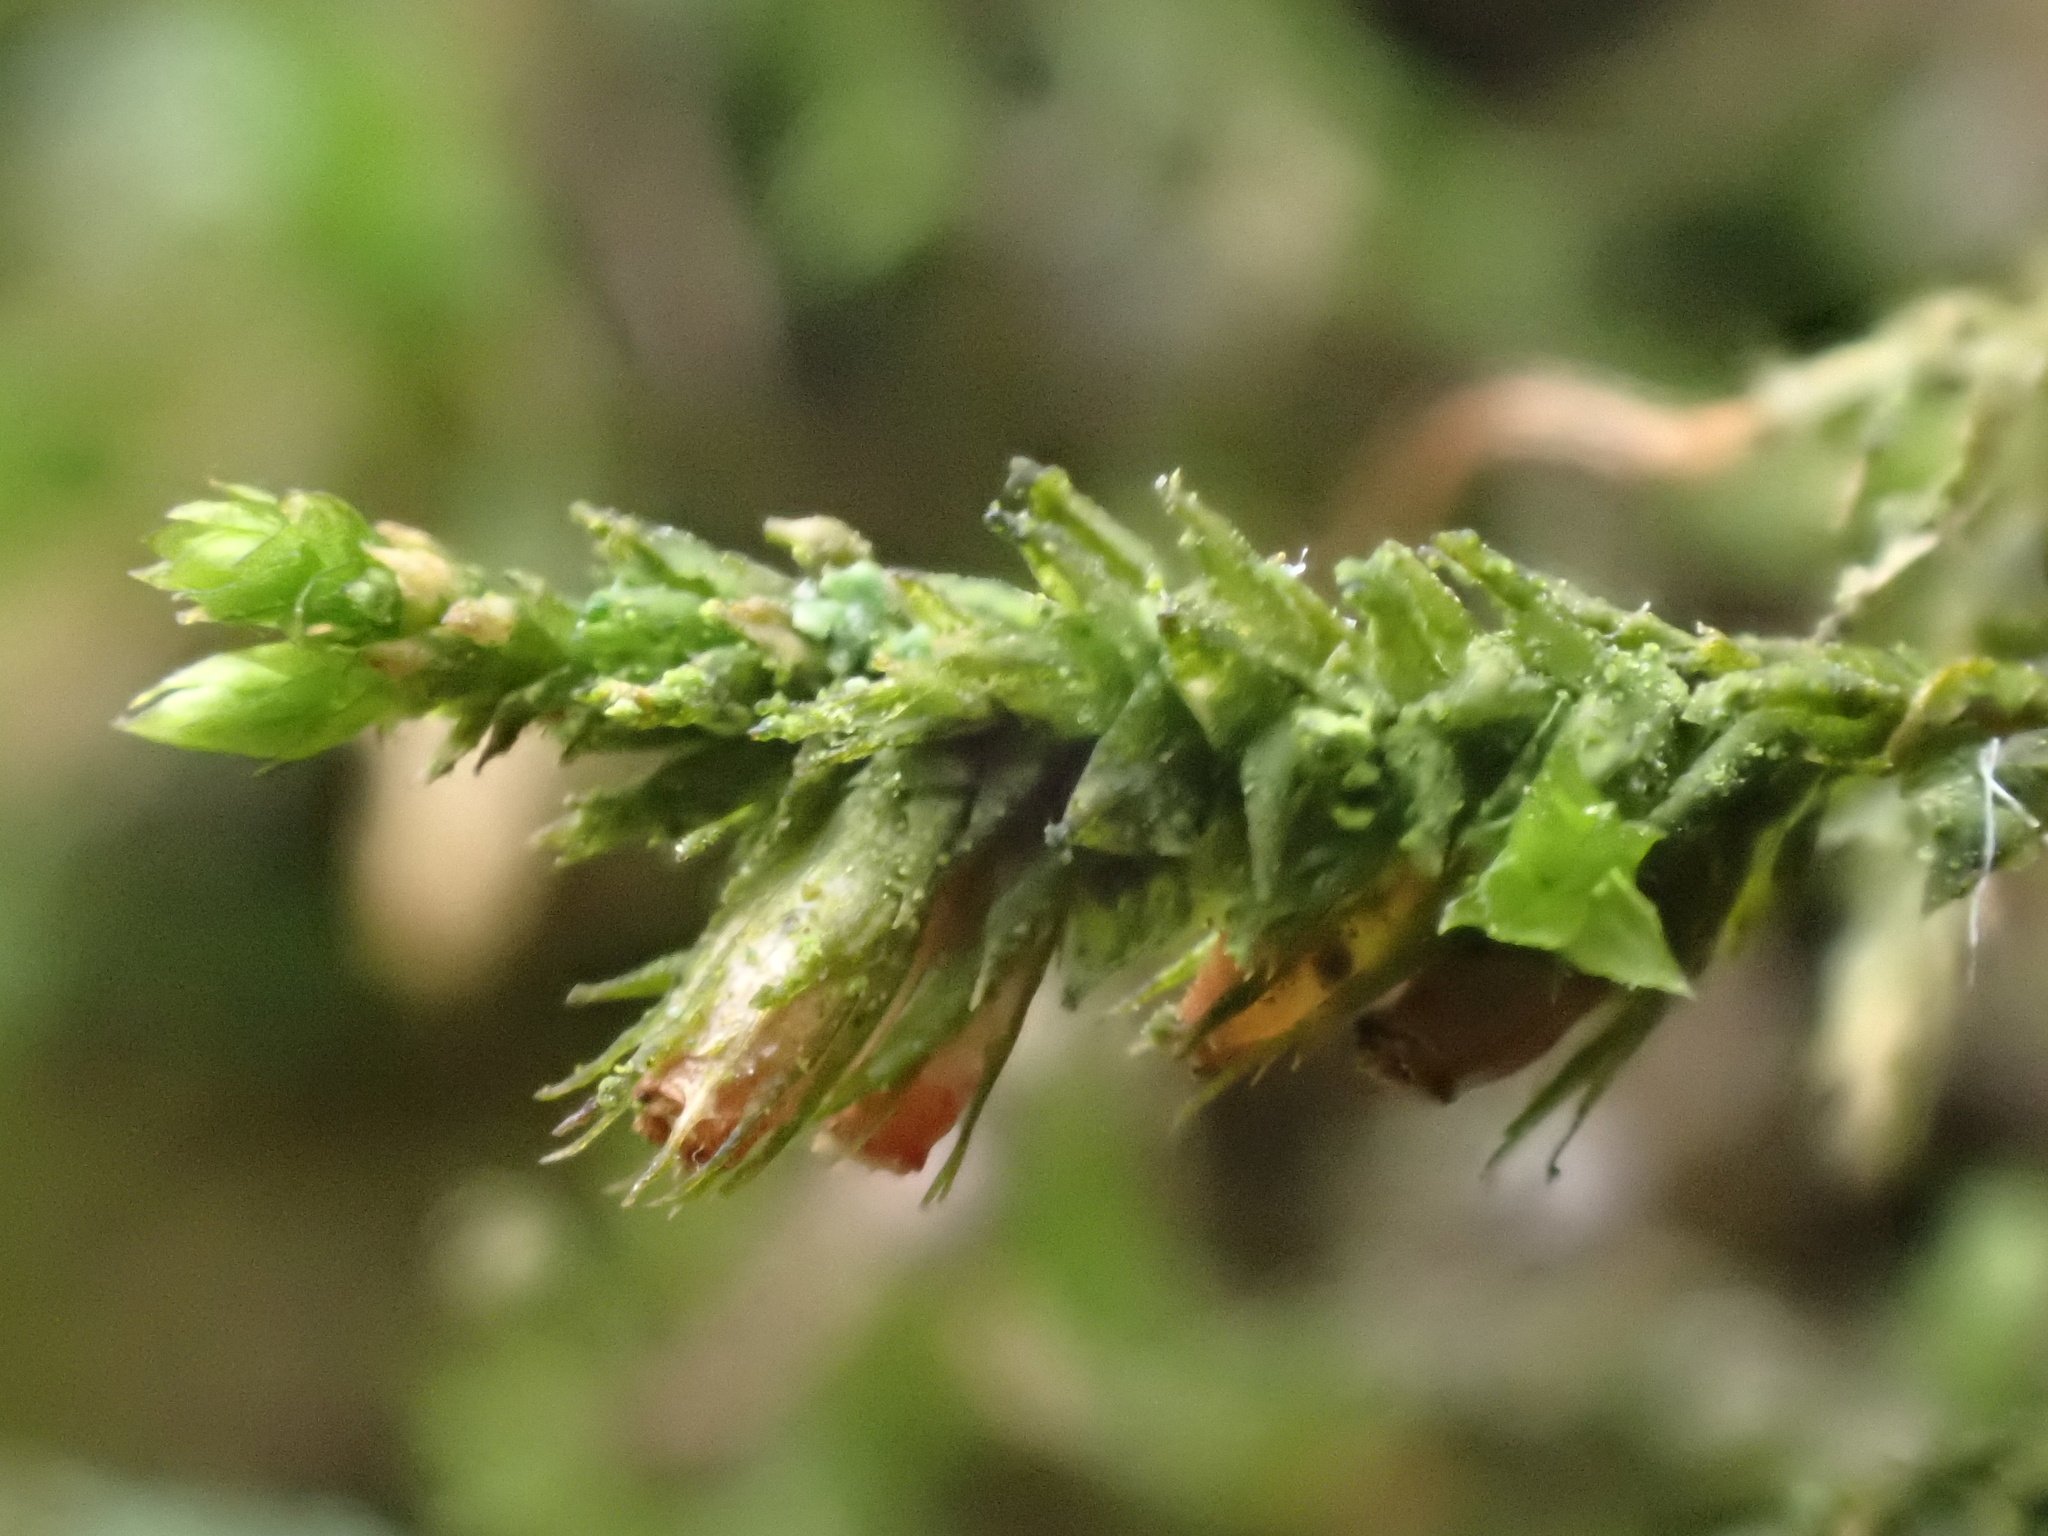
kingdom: Plantae
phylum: Bryophyta
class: Bryopsida
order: Hypnales
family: Cryphaeaceae
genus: Cryphaea
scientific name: Cryphaea heteromalla
